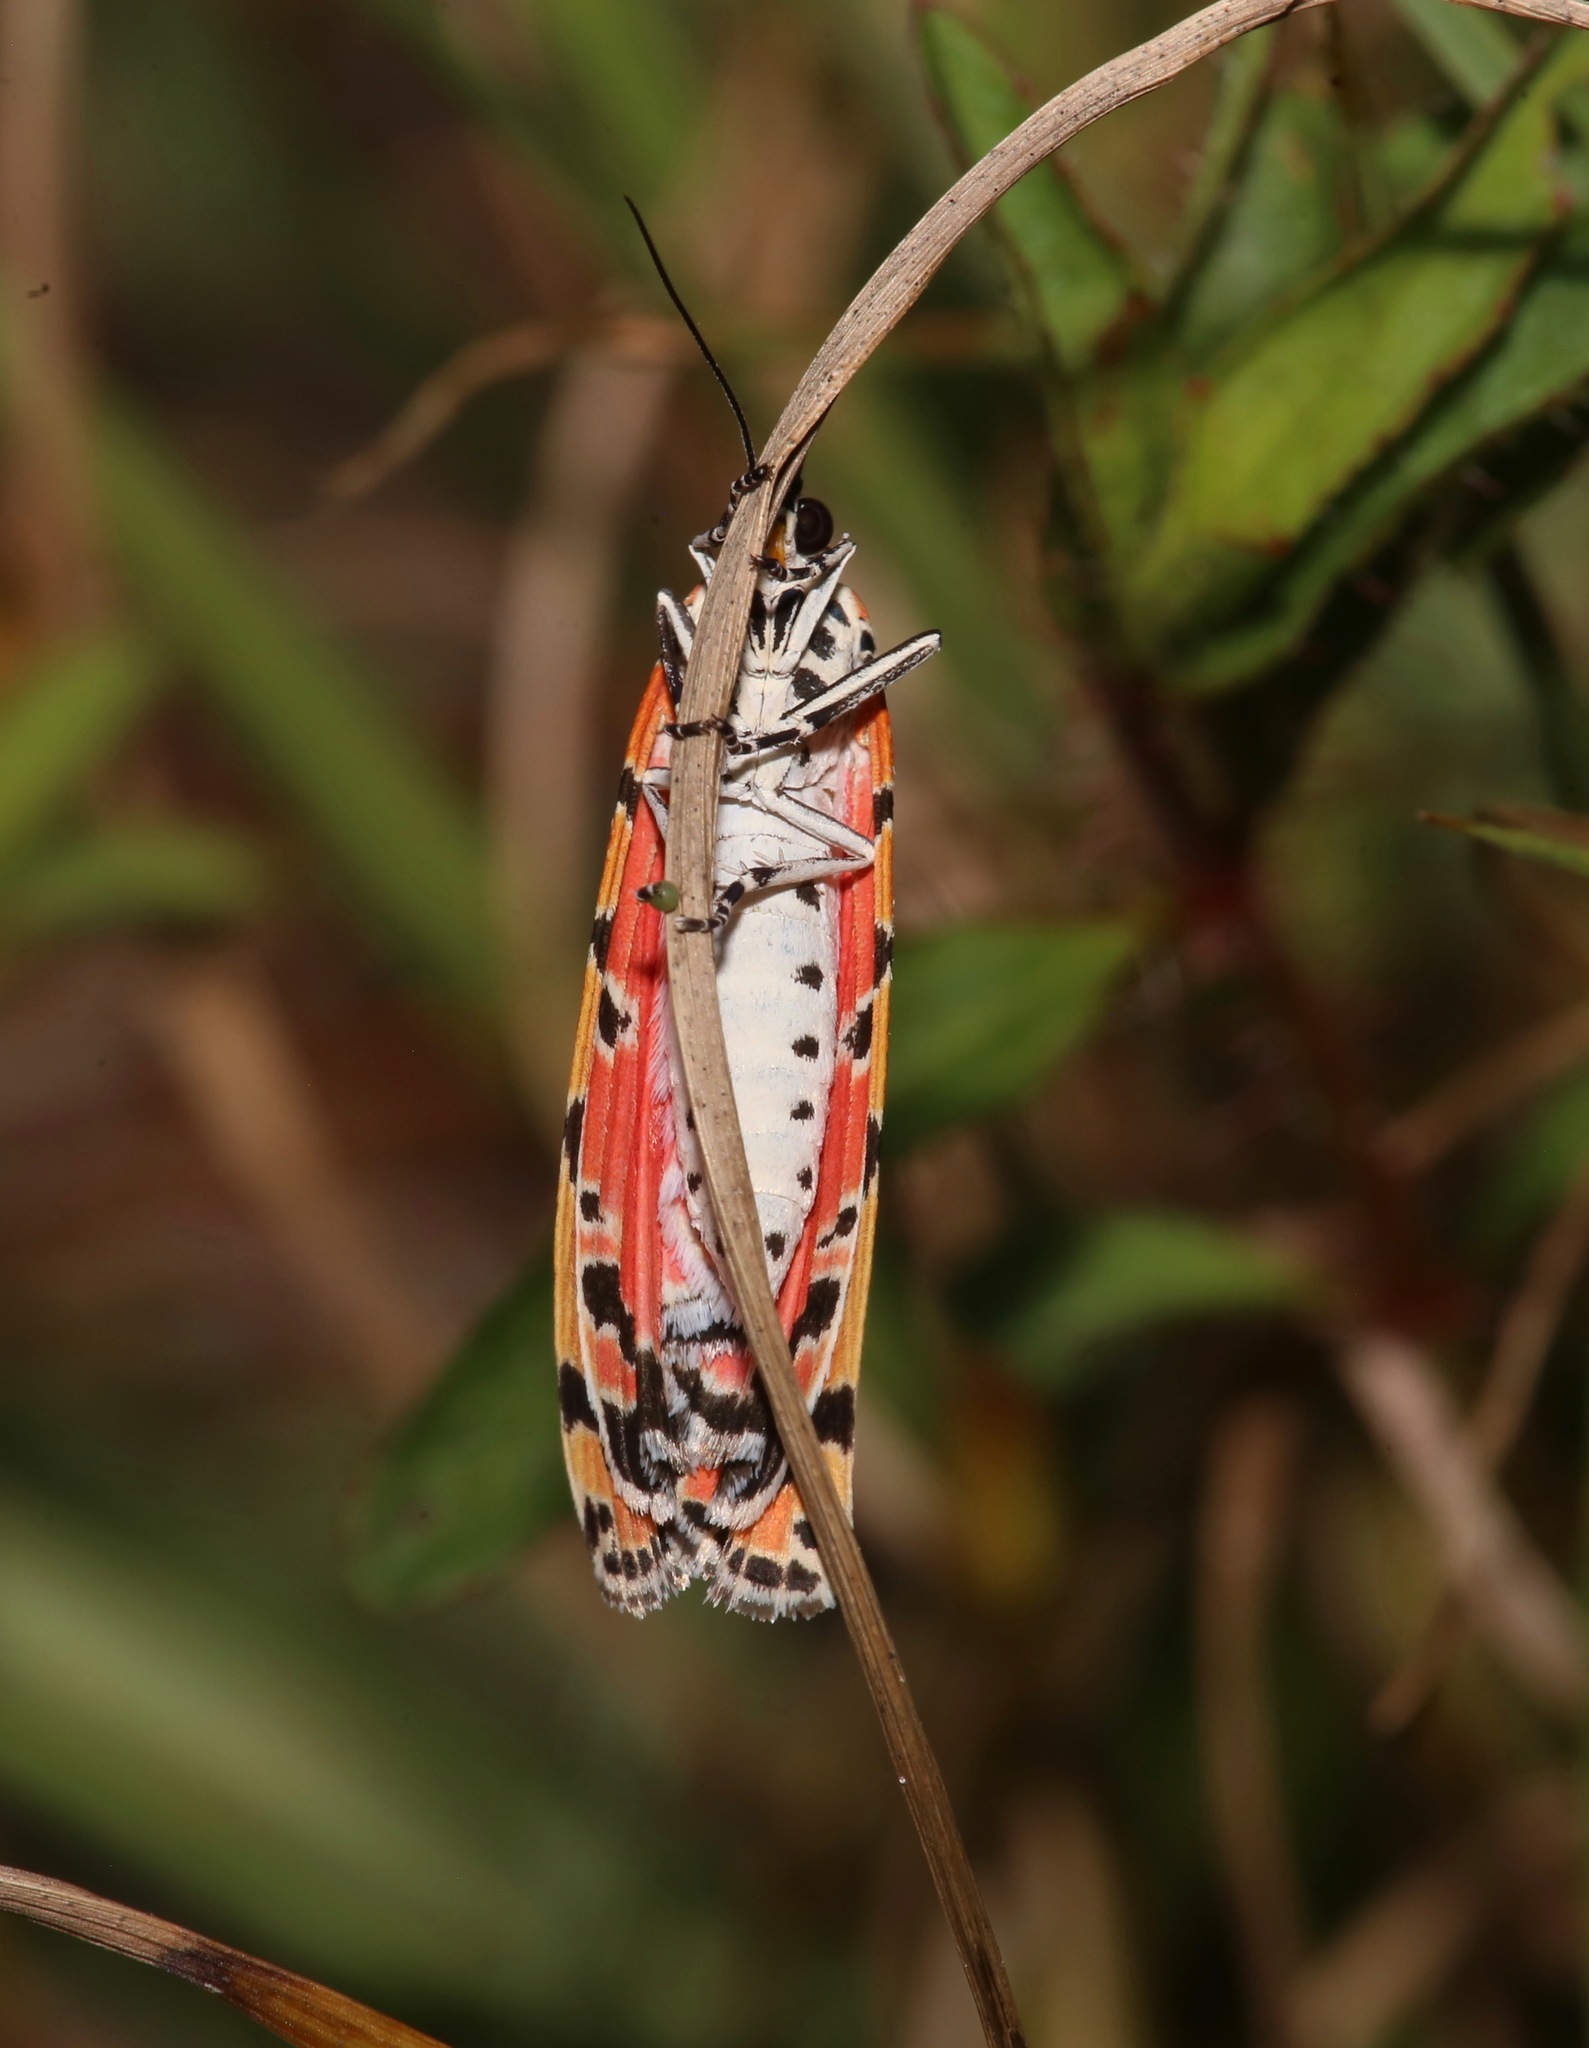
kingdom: Animalia
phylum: Arthropoda
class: Insecta
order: Lepidoptera
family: Erebidae
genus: Utetheisa
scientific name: Utetheisa ornatrix
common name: Beautiful utetheisa
